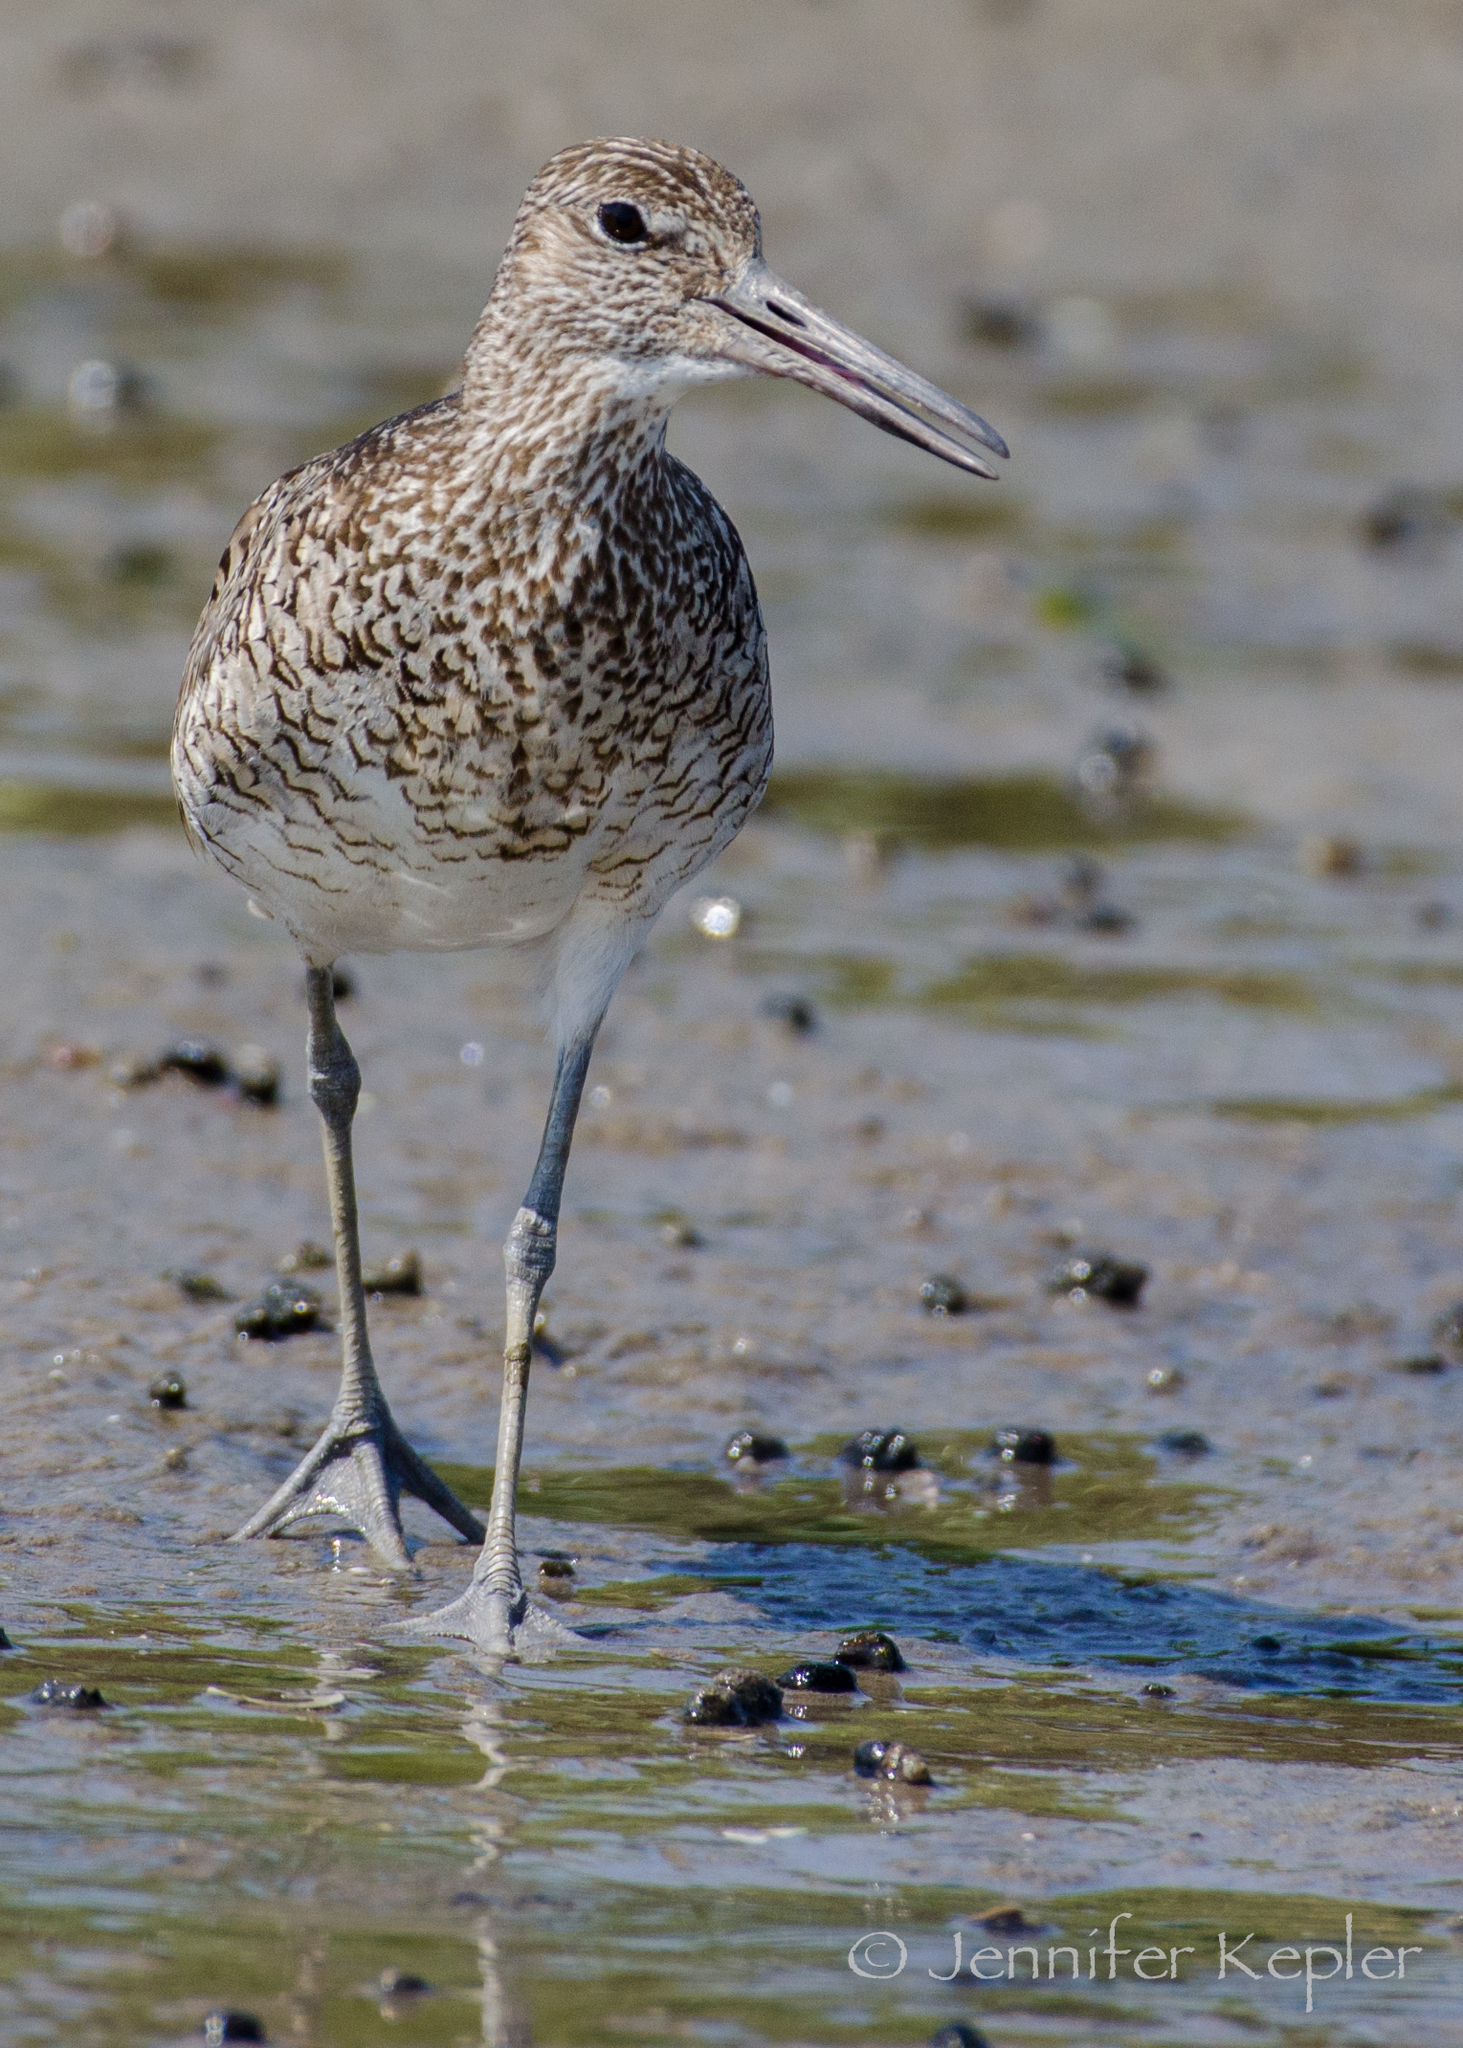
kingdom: Animalia
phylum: Chordata
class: Aves
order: Charadriiformes
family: Scolopacidae
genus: Tringa
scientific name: Tringa semipalmata
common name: Willet
